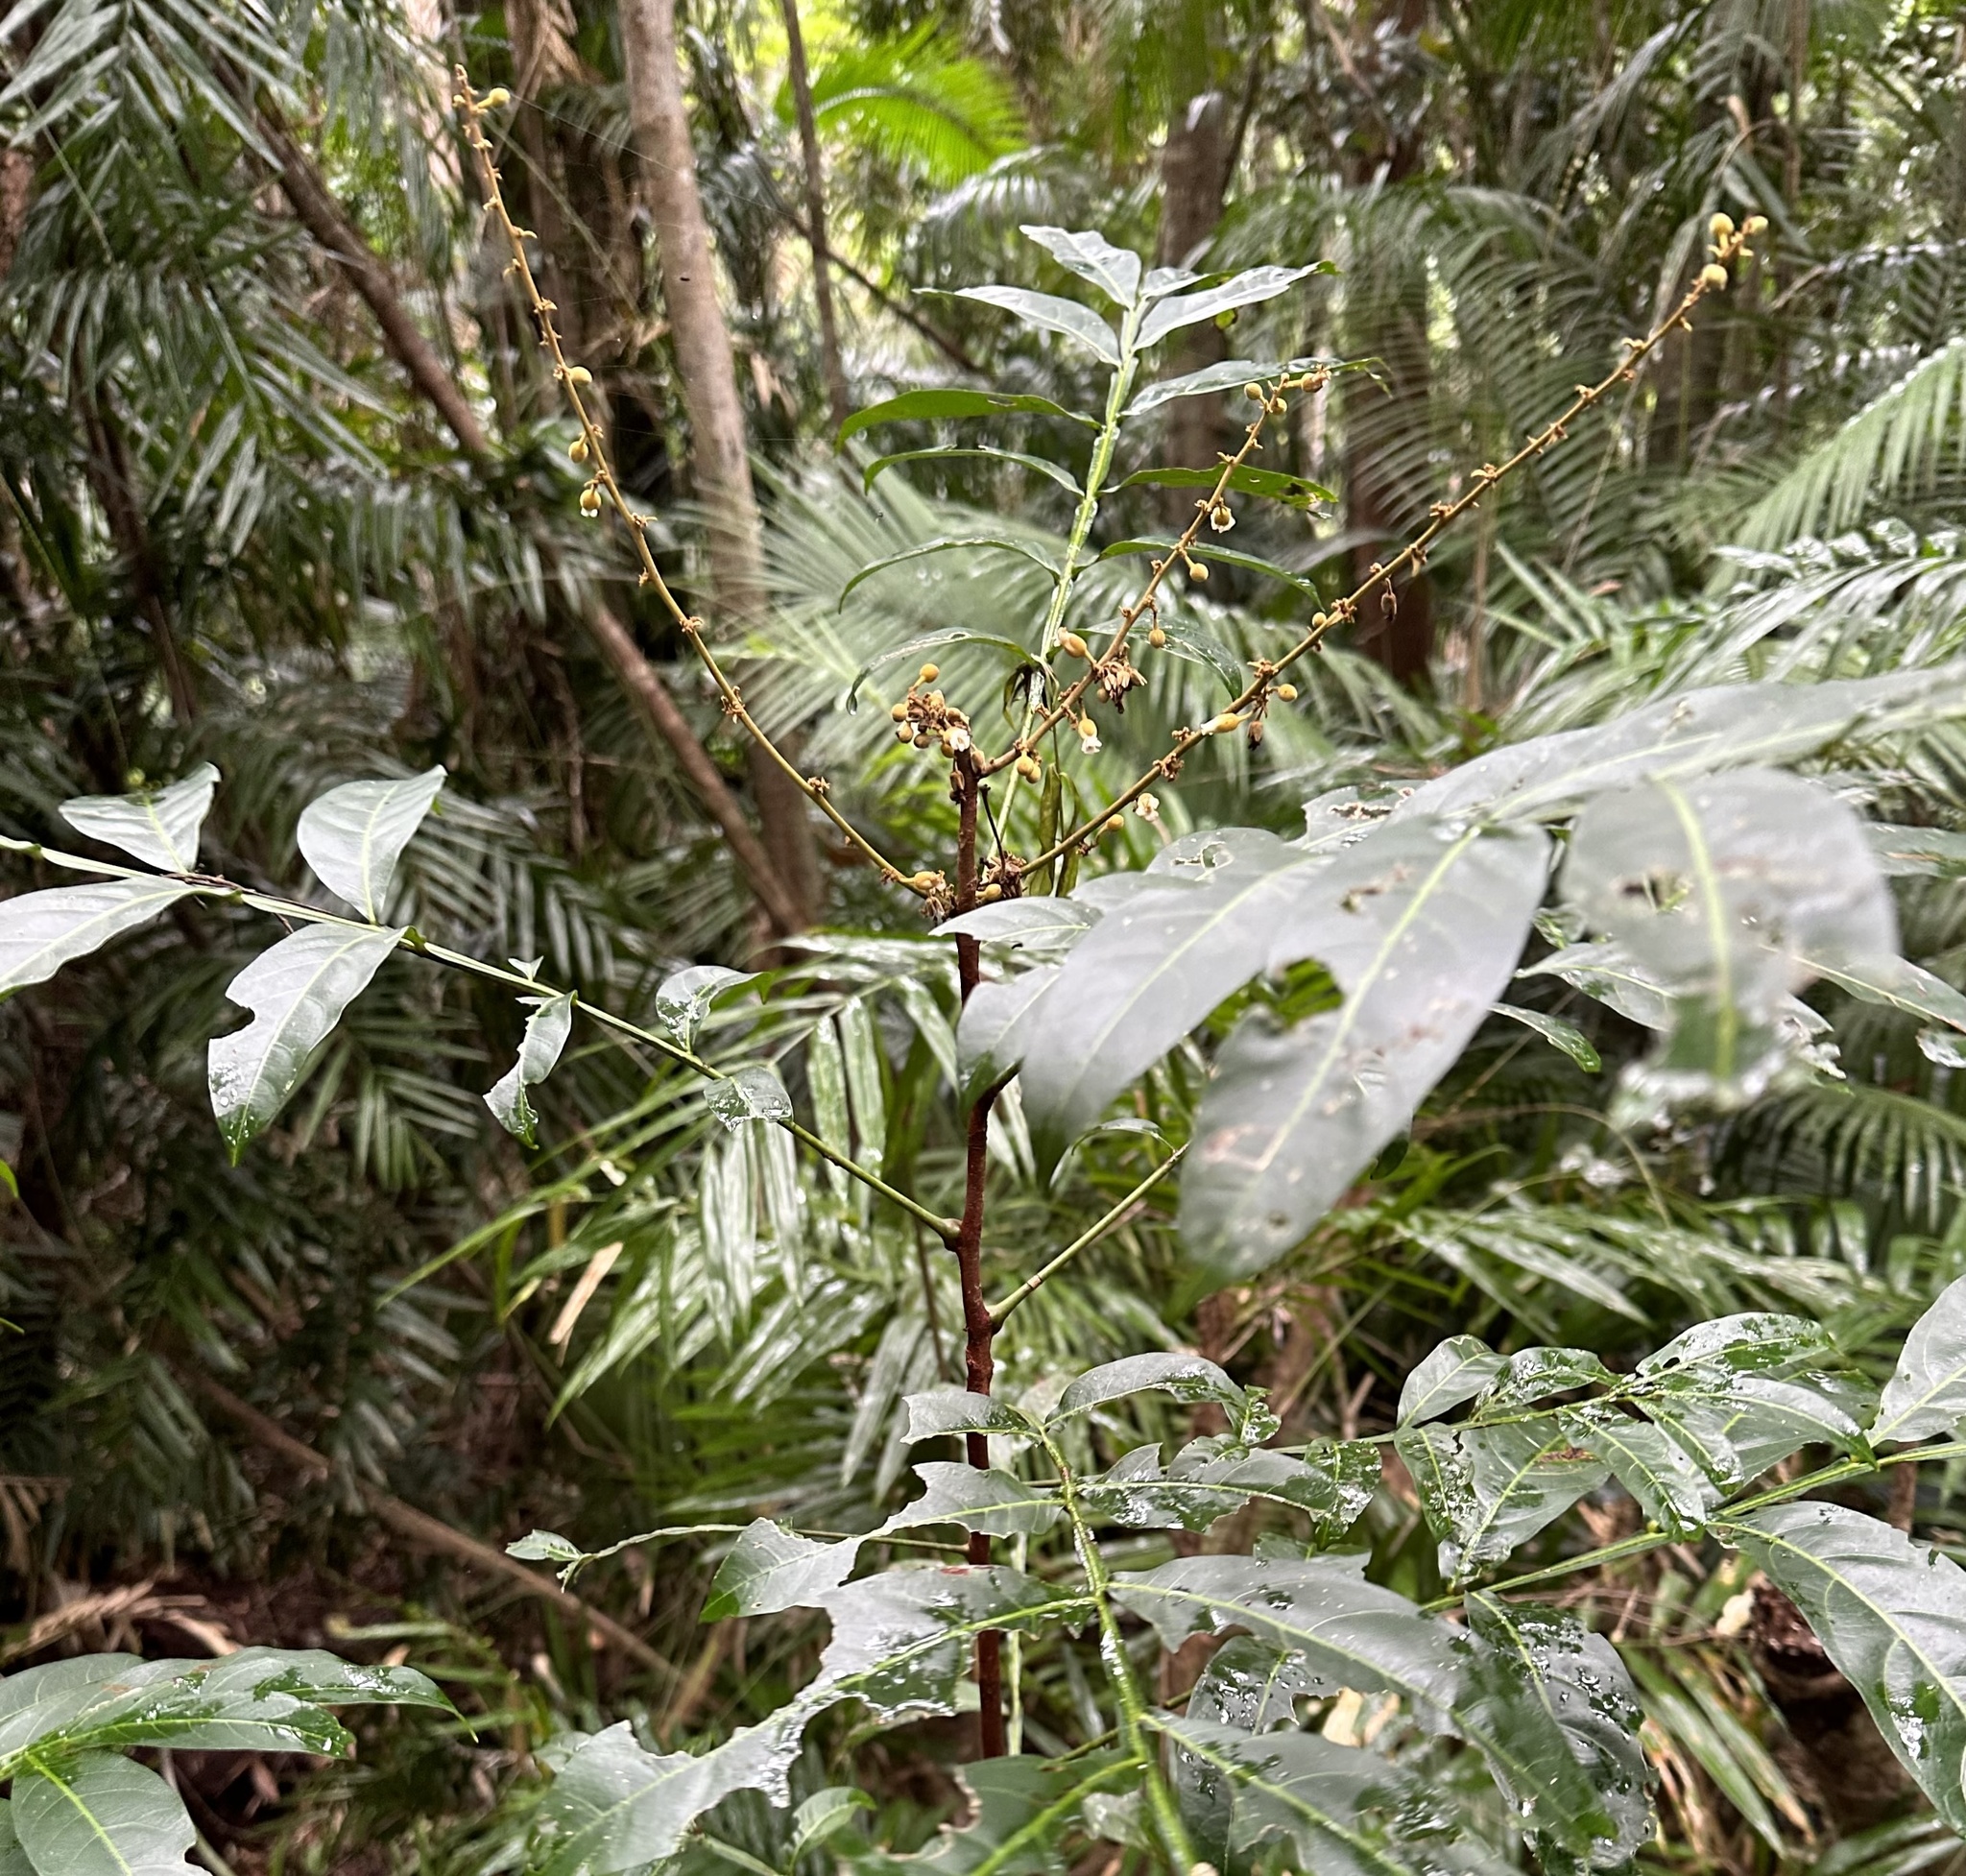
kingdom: Plantae
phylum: Tracheophyta
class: Magnoliopsida
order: Sapindales
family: Sapindaceae
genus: Harpullia
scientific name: Harpullia rhyticarpa
